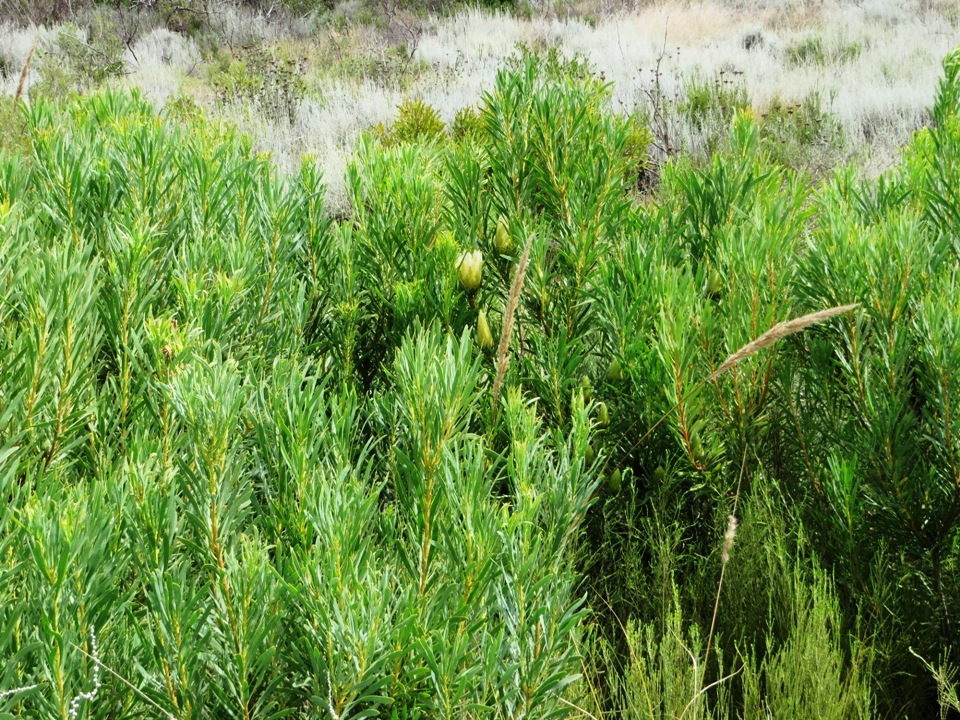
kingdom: Plantae
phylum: Tracheophyta
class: Magnoliopsida
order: Proteales
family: Proteaceae
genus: Protea
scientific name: Protea repens
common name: Sugarbush
